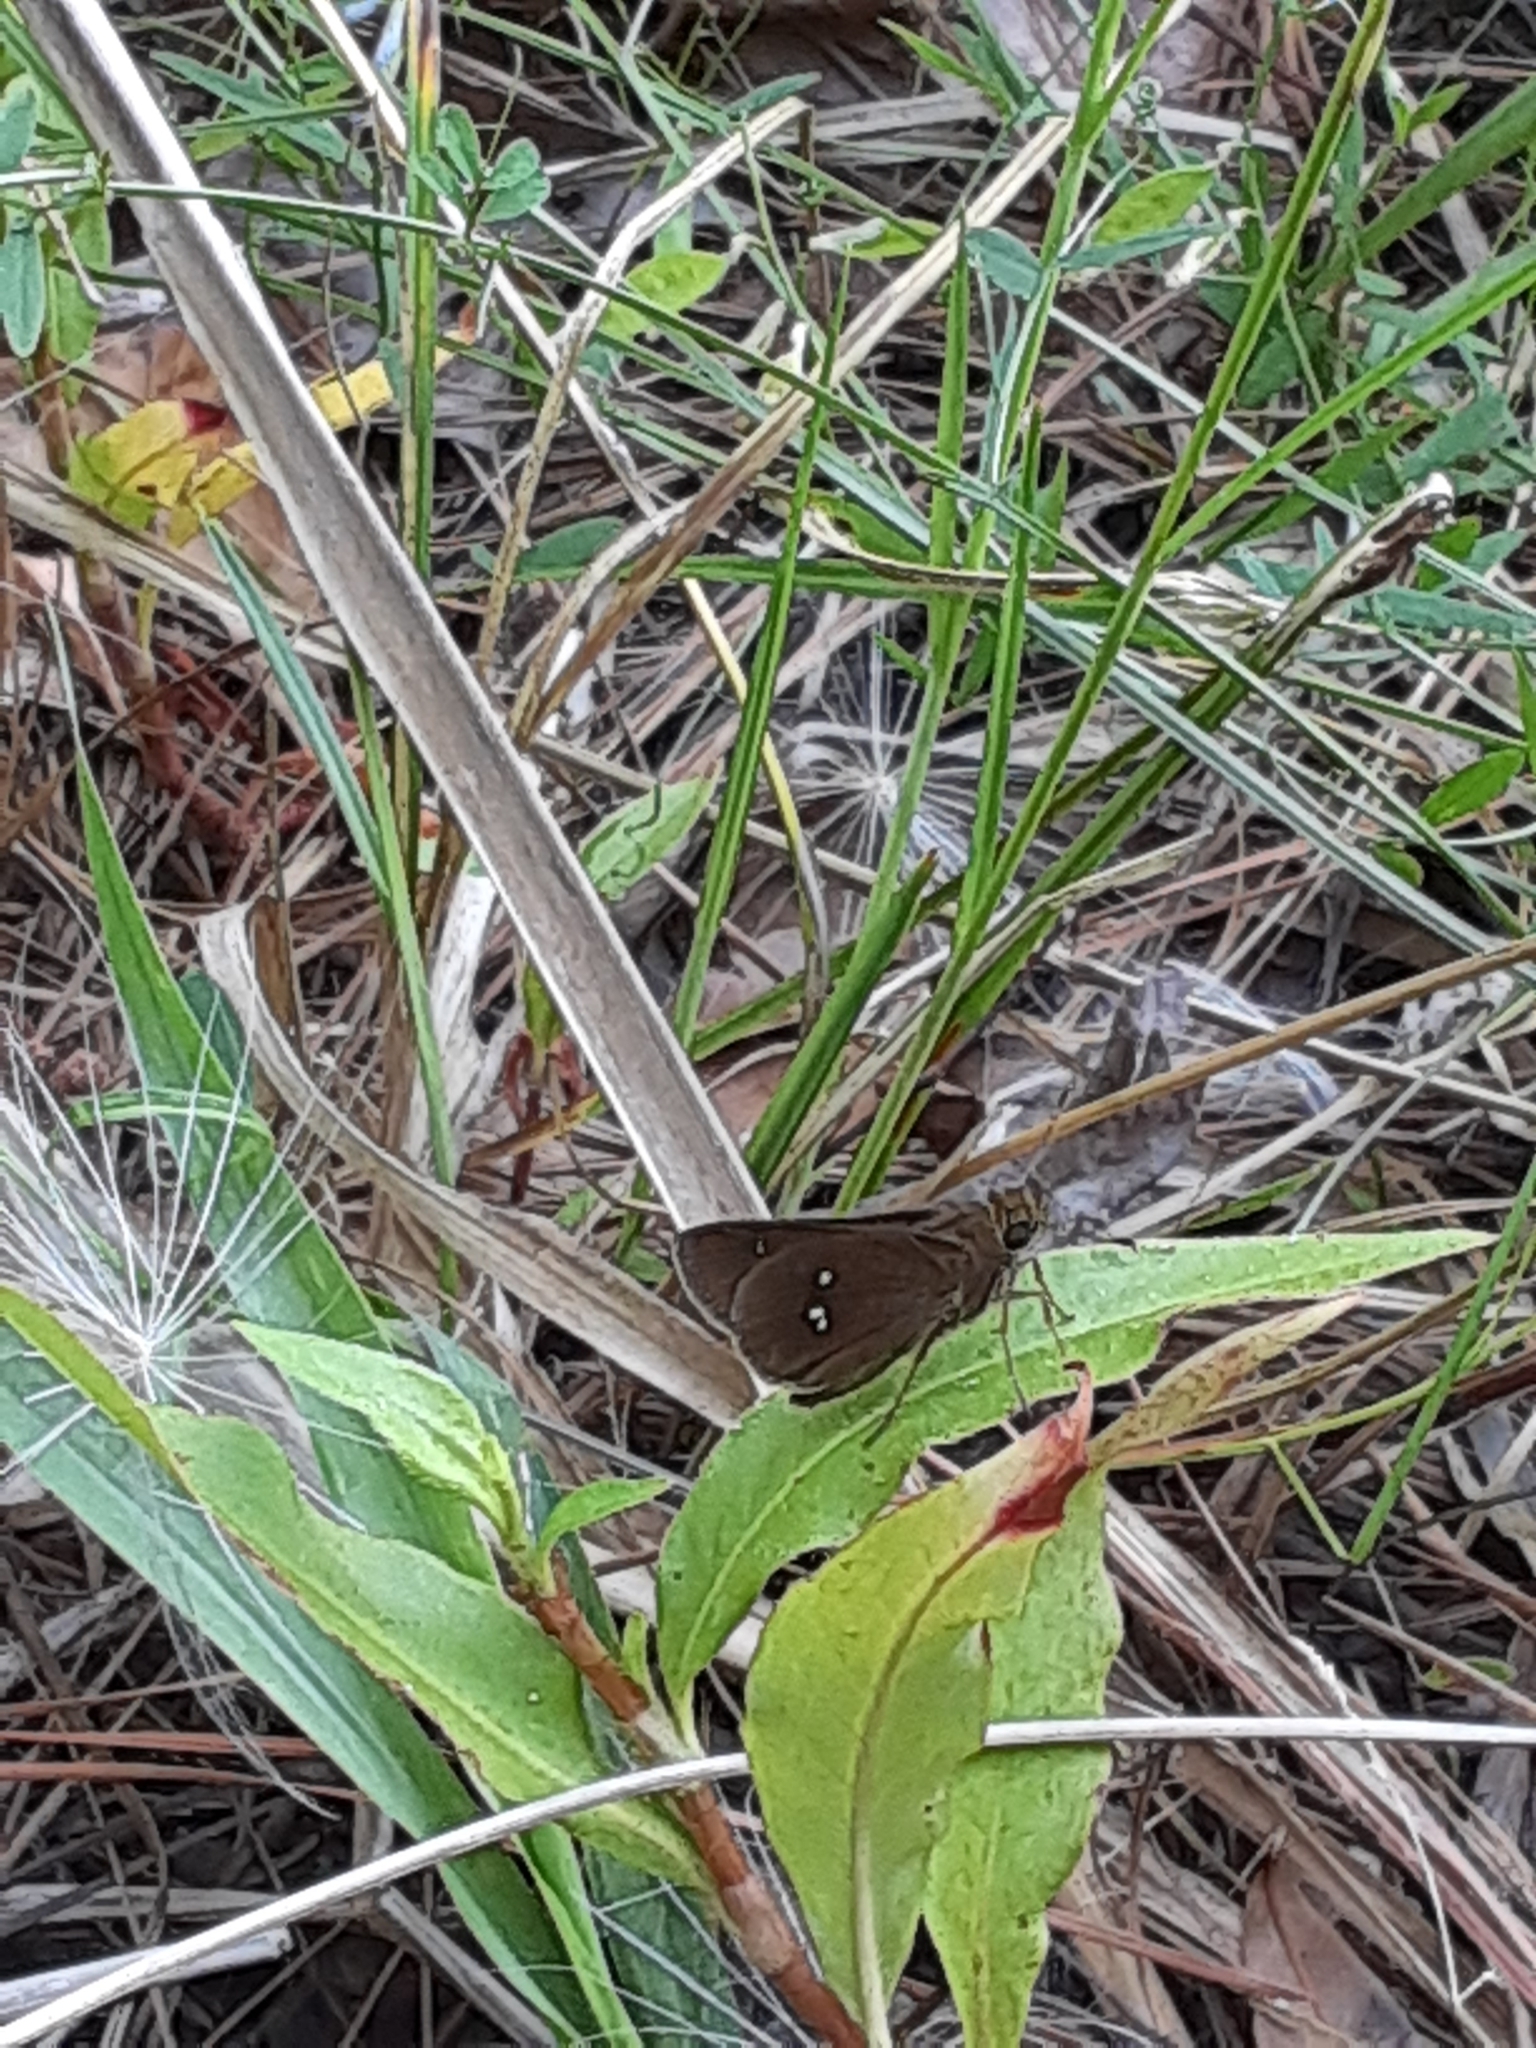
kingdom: Animalia
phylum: Arthropoda
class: Insecta
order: Lepidoptera
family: Hesperiidae
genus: Oligoria
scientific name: Oligoria maculata
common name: Twin-spot skipper
